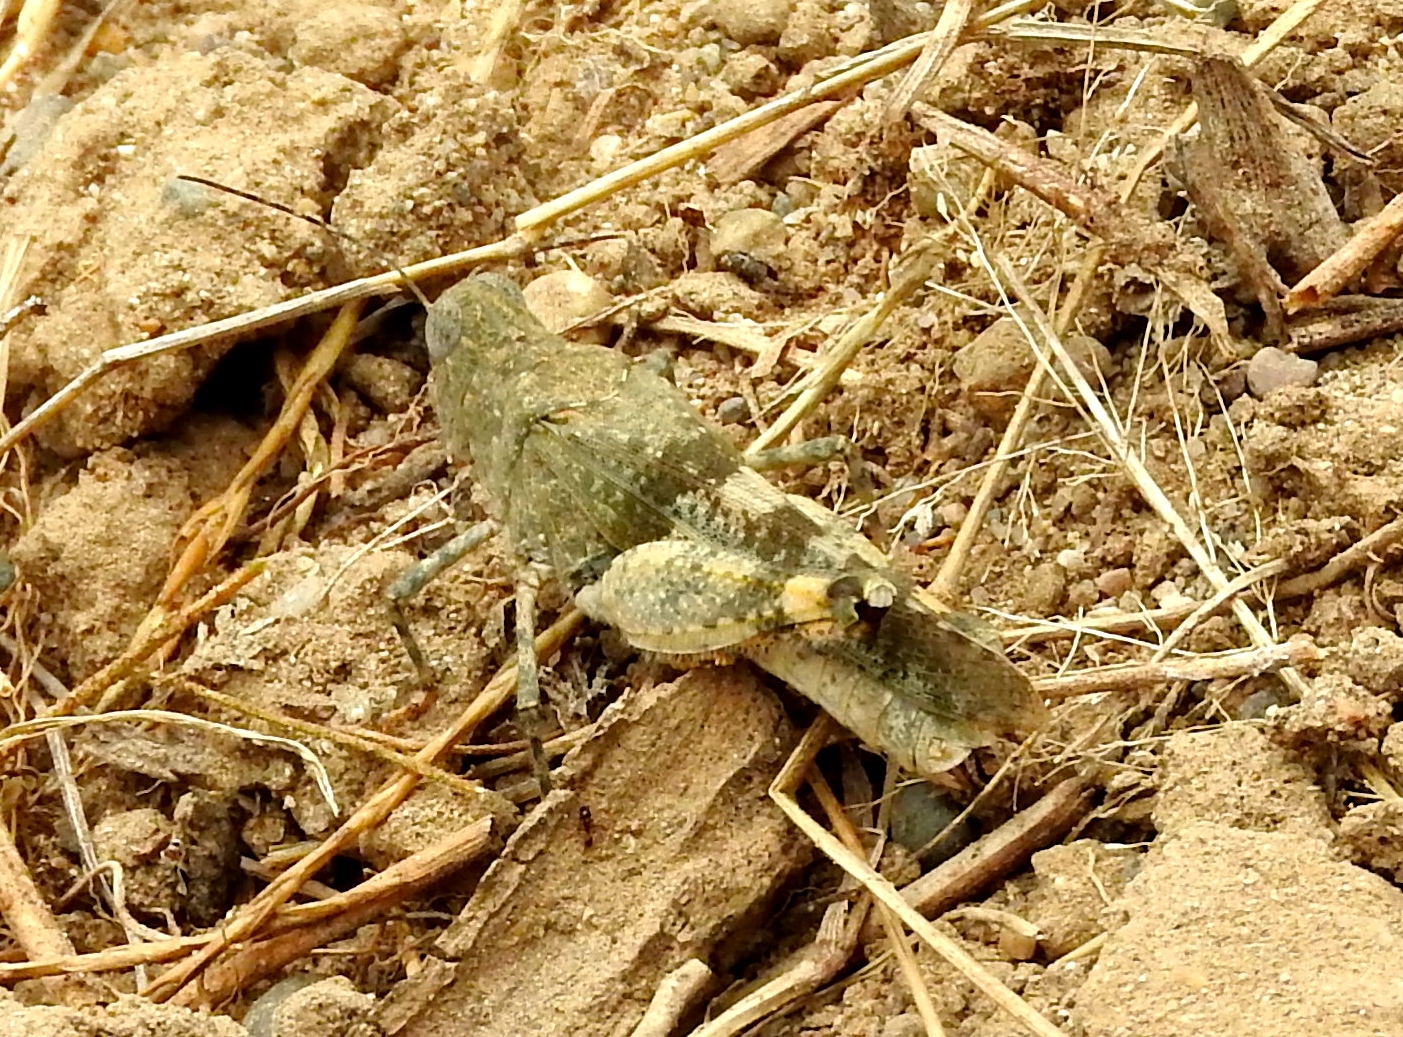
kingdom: Animalia
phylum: Arthropoda
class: Insecta
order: Orthoptera
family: Acrididae
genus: Heliastus
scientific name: Heliastus benjamini
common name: Arroyo grasshopper
